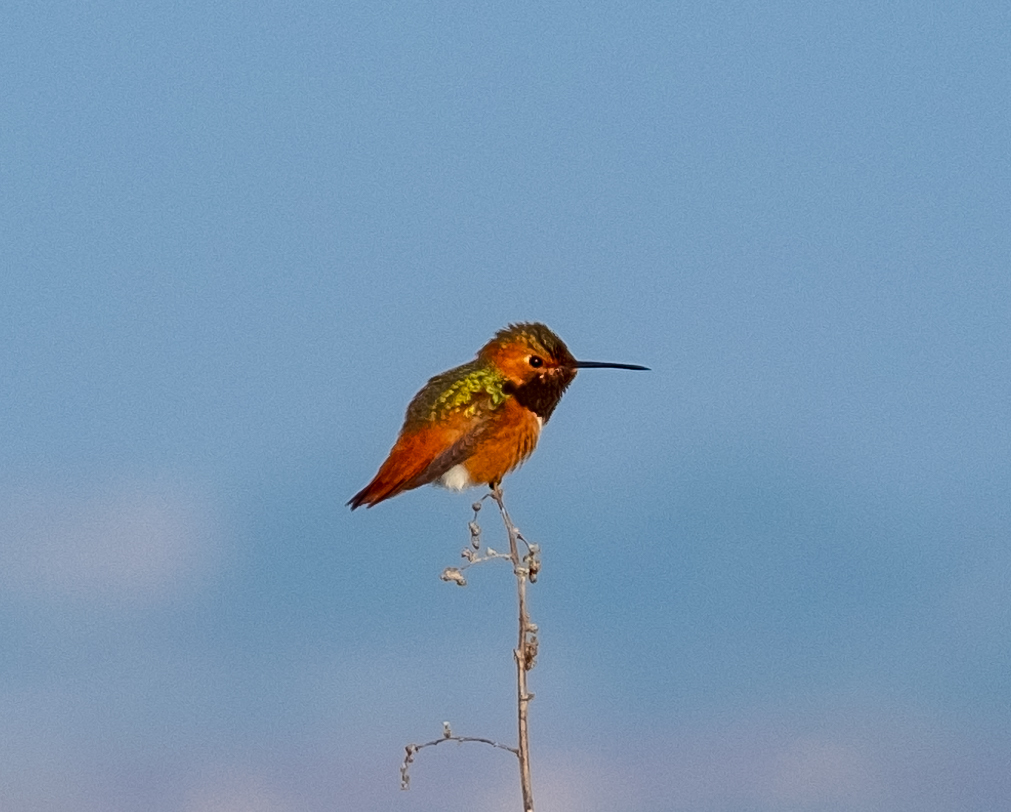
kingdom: Animalia
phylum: Chordata
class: Aves
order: Apodiformes
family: Trochilidae
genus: Selasphorus
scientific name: Selasphorus sasin
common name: Allen's hummingbird
